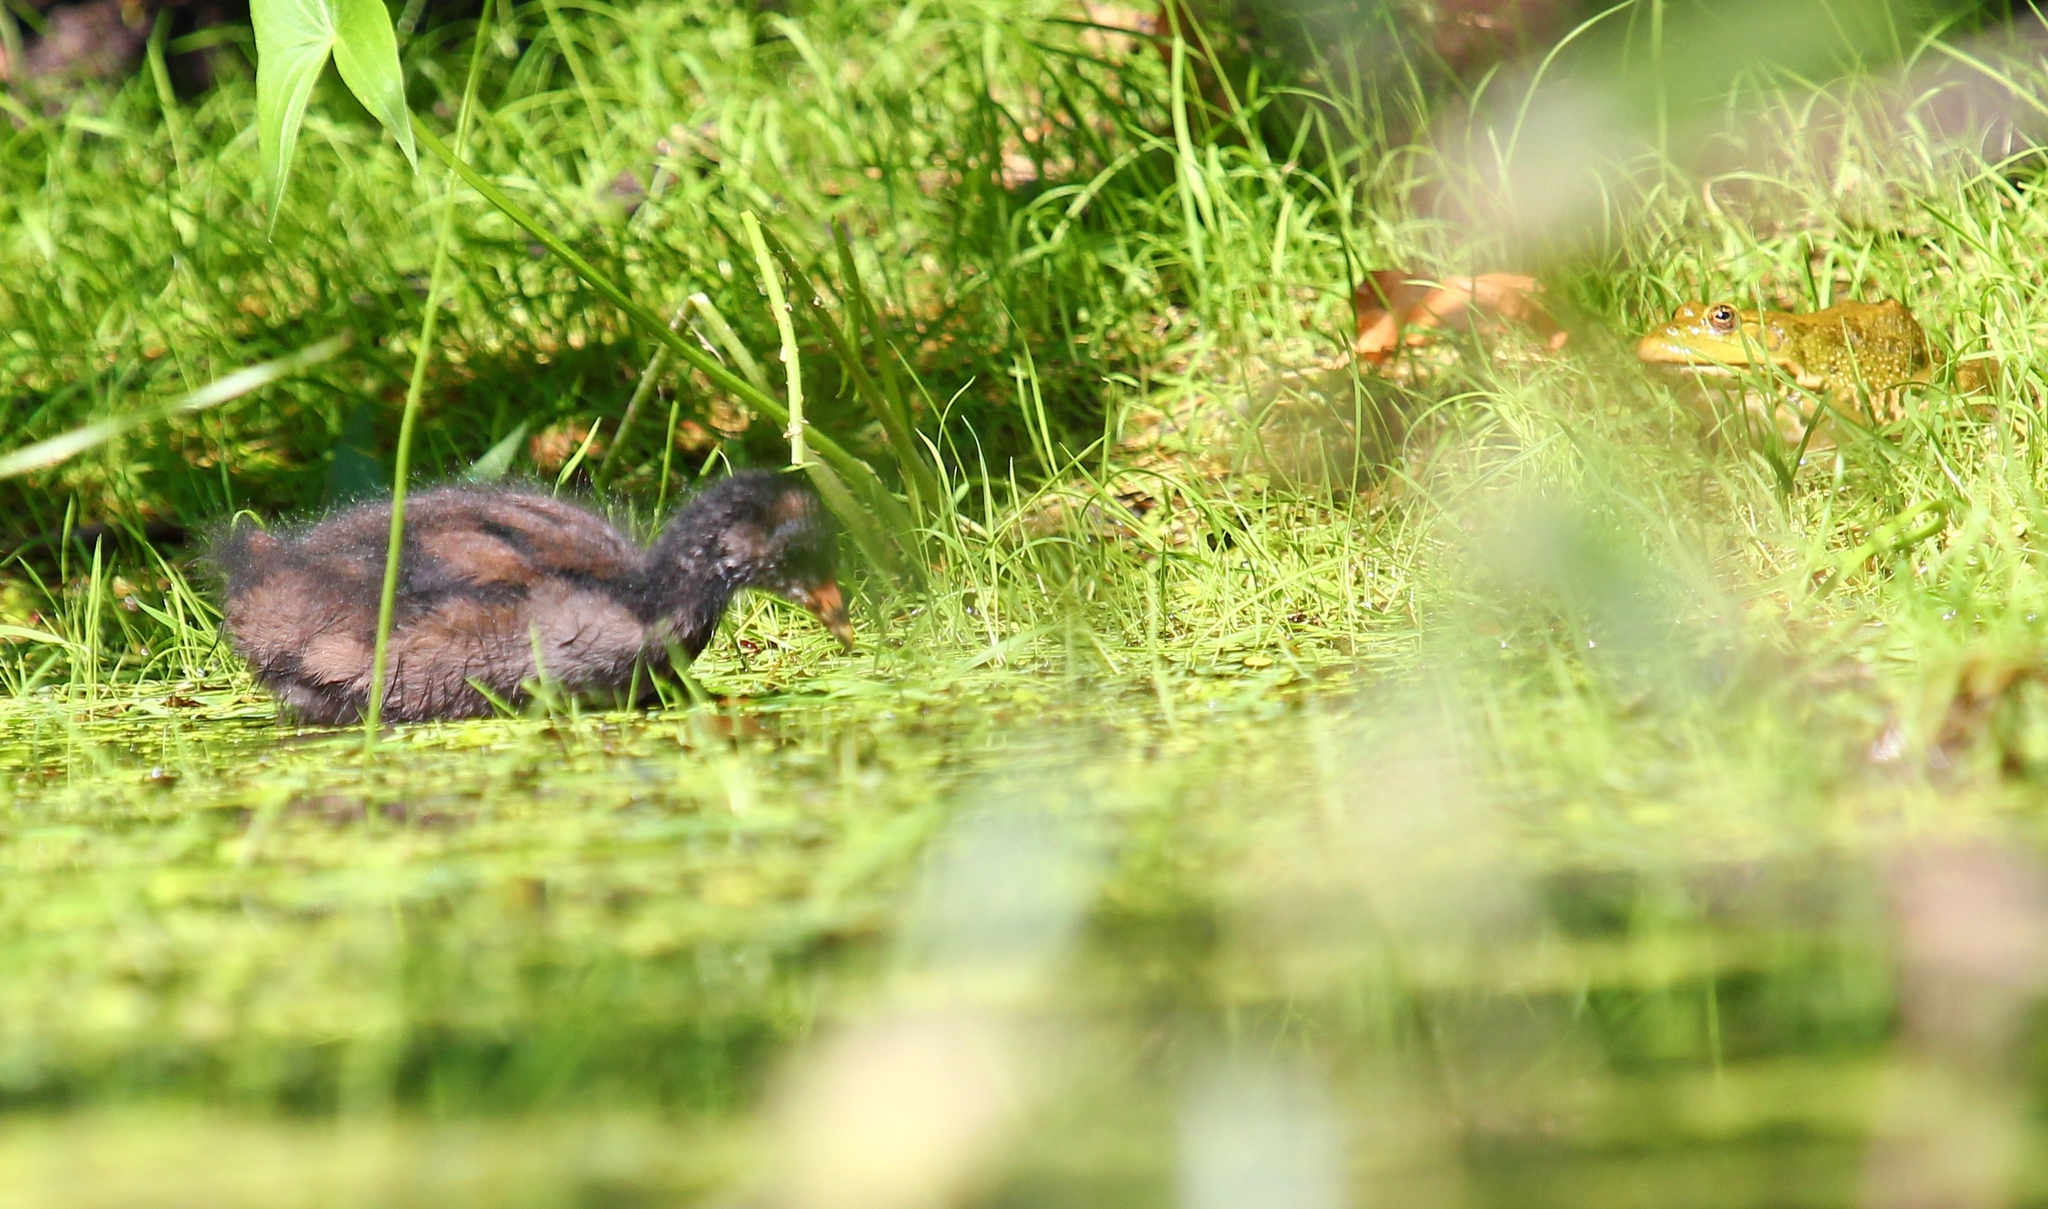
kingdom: Animalia
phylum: Chordata
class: Aves
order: Gruiformes
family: Rallidae
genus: Gallinula
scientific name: Gallinula chloropus
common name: Common moorhen
